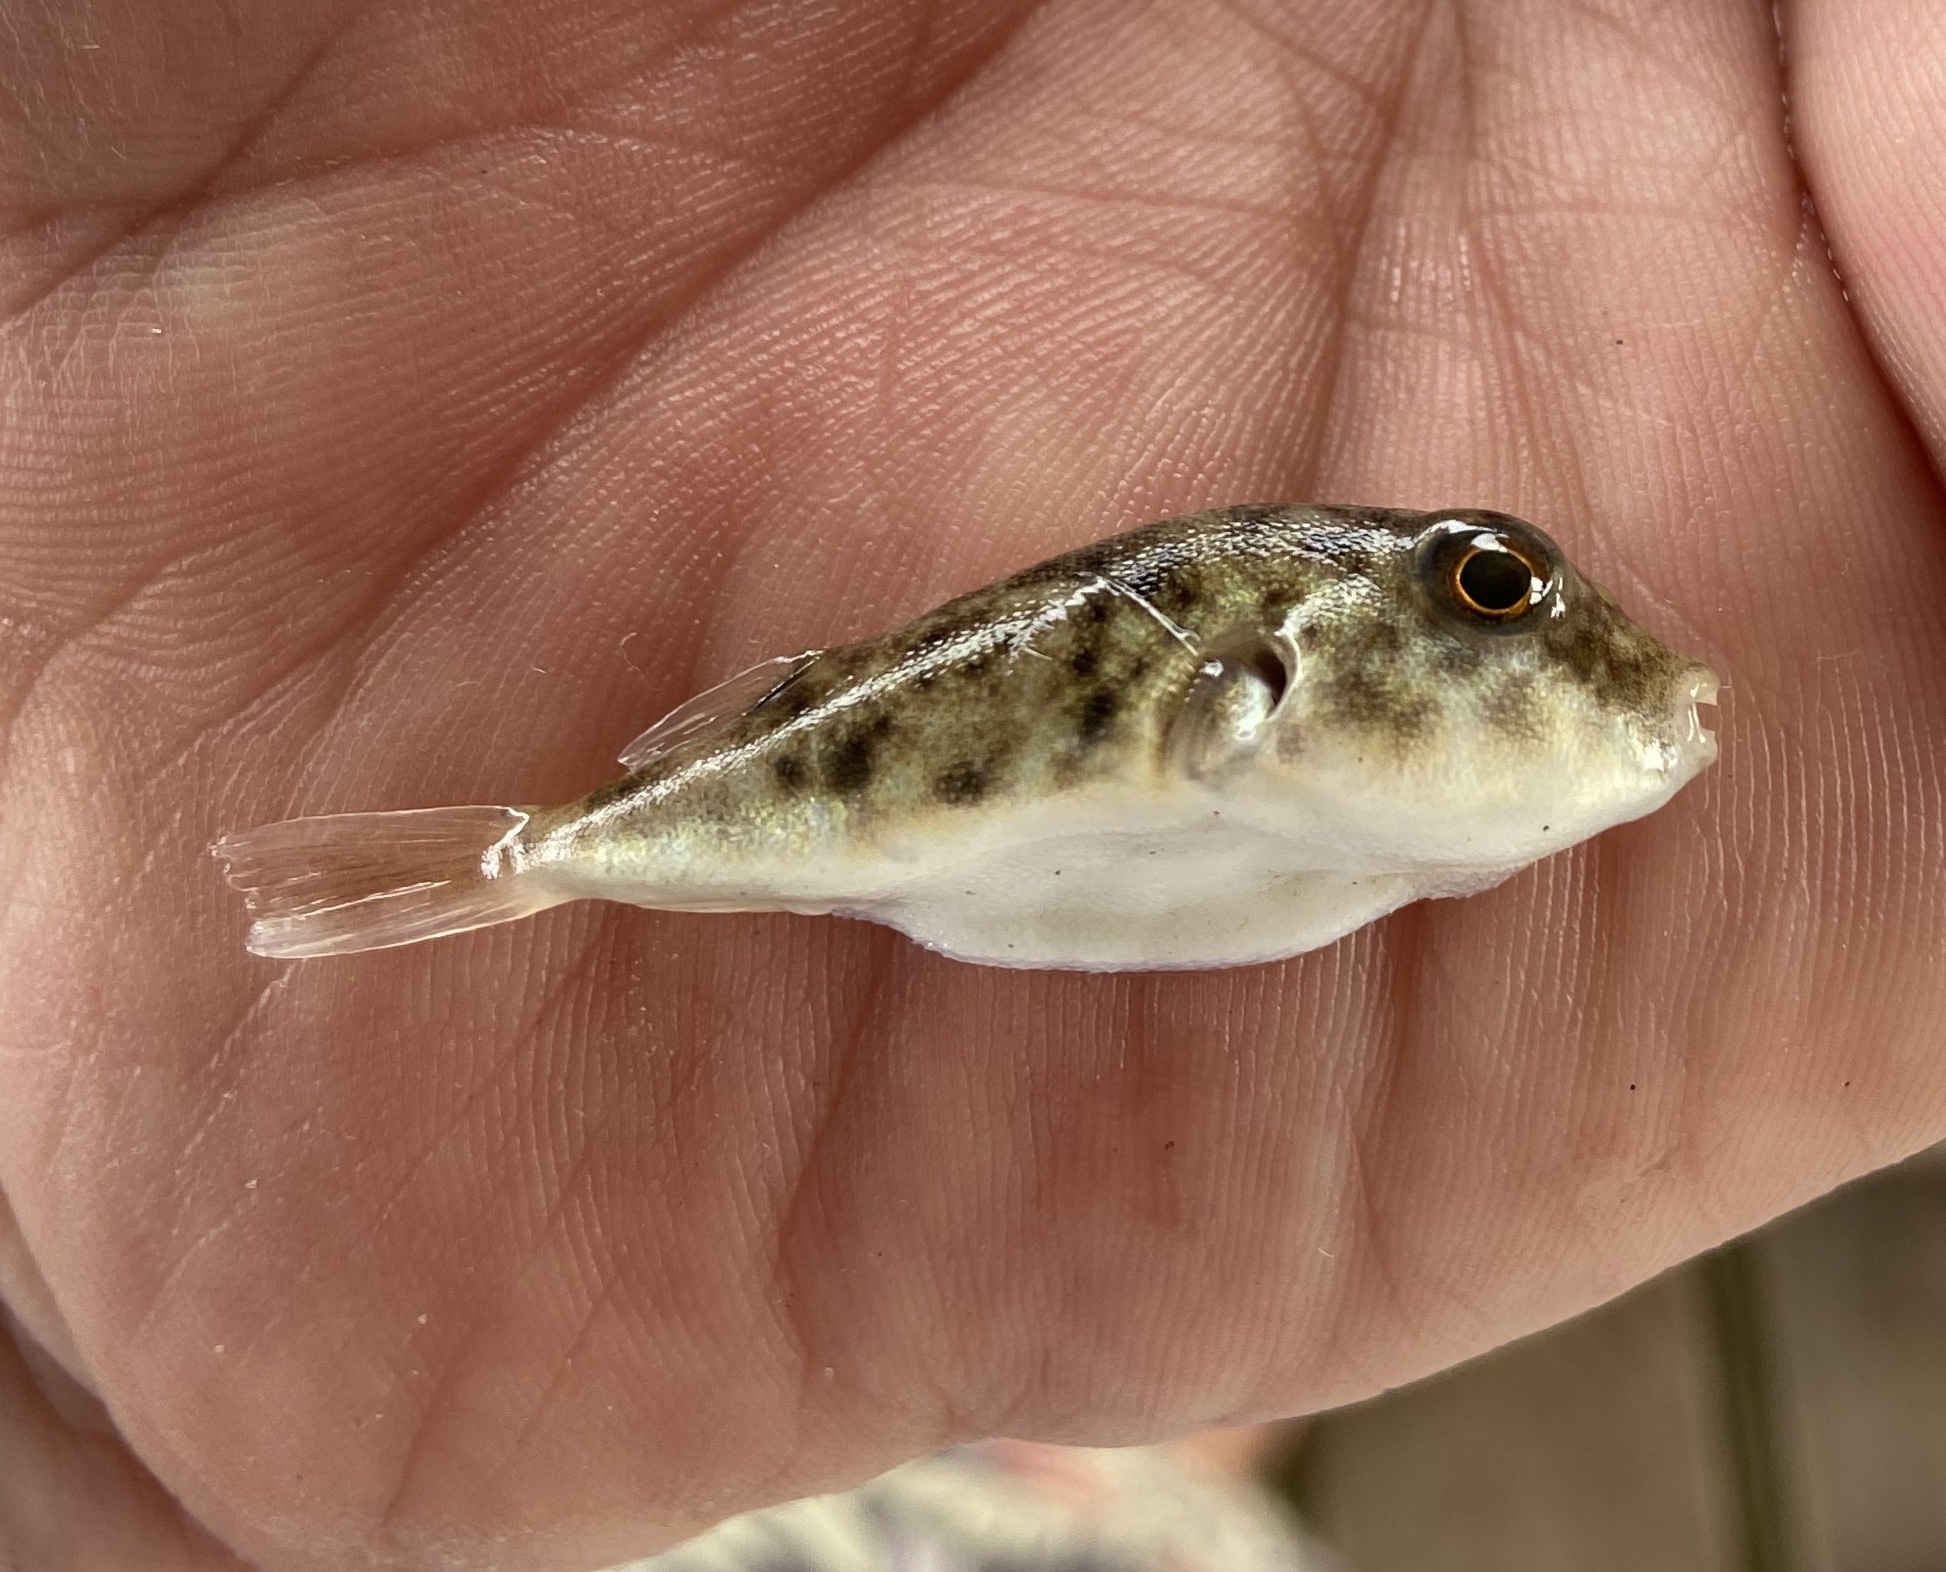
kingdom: Animalia
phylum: Chordata
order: Tetraodontiformes
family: Tetraodontidae
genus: Sphoeroides
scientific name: Sphoeroides parvus
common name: Least puffer
